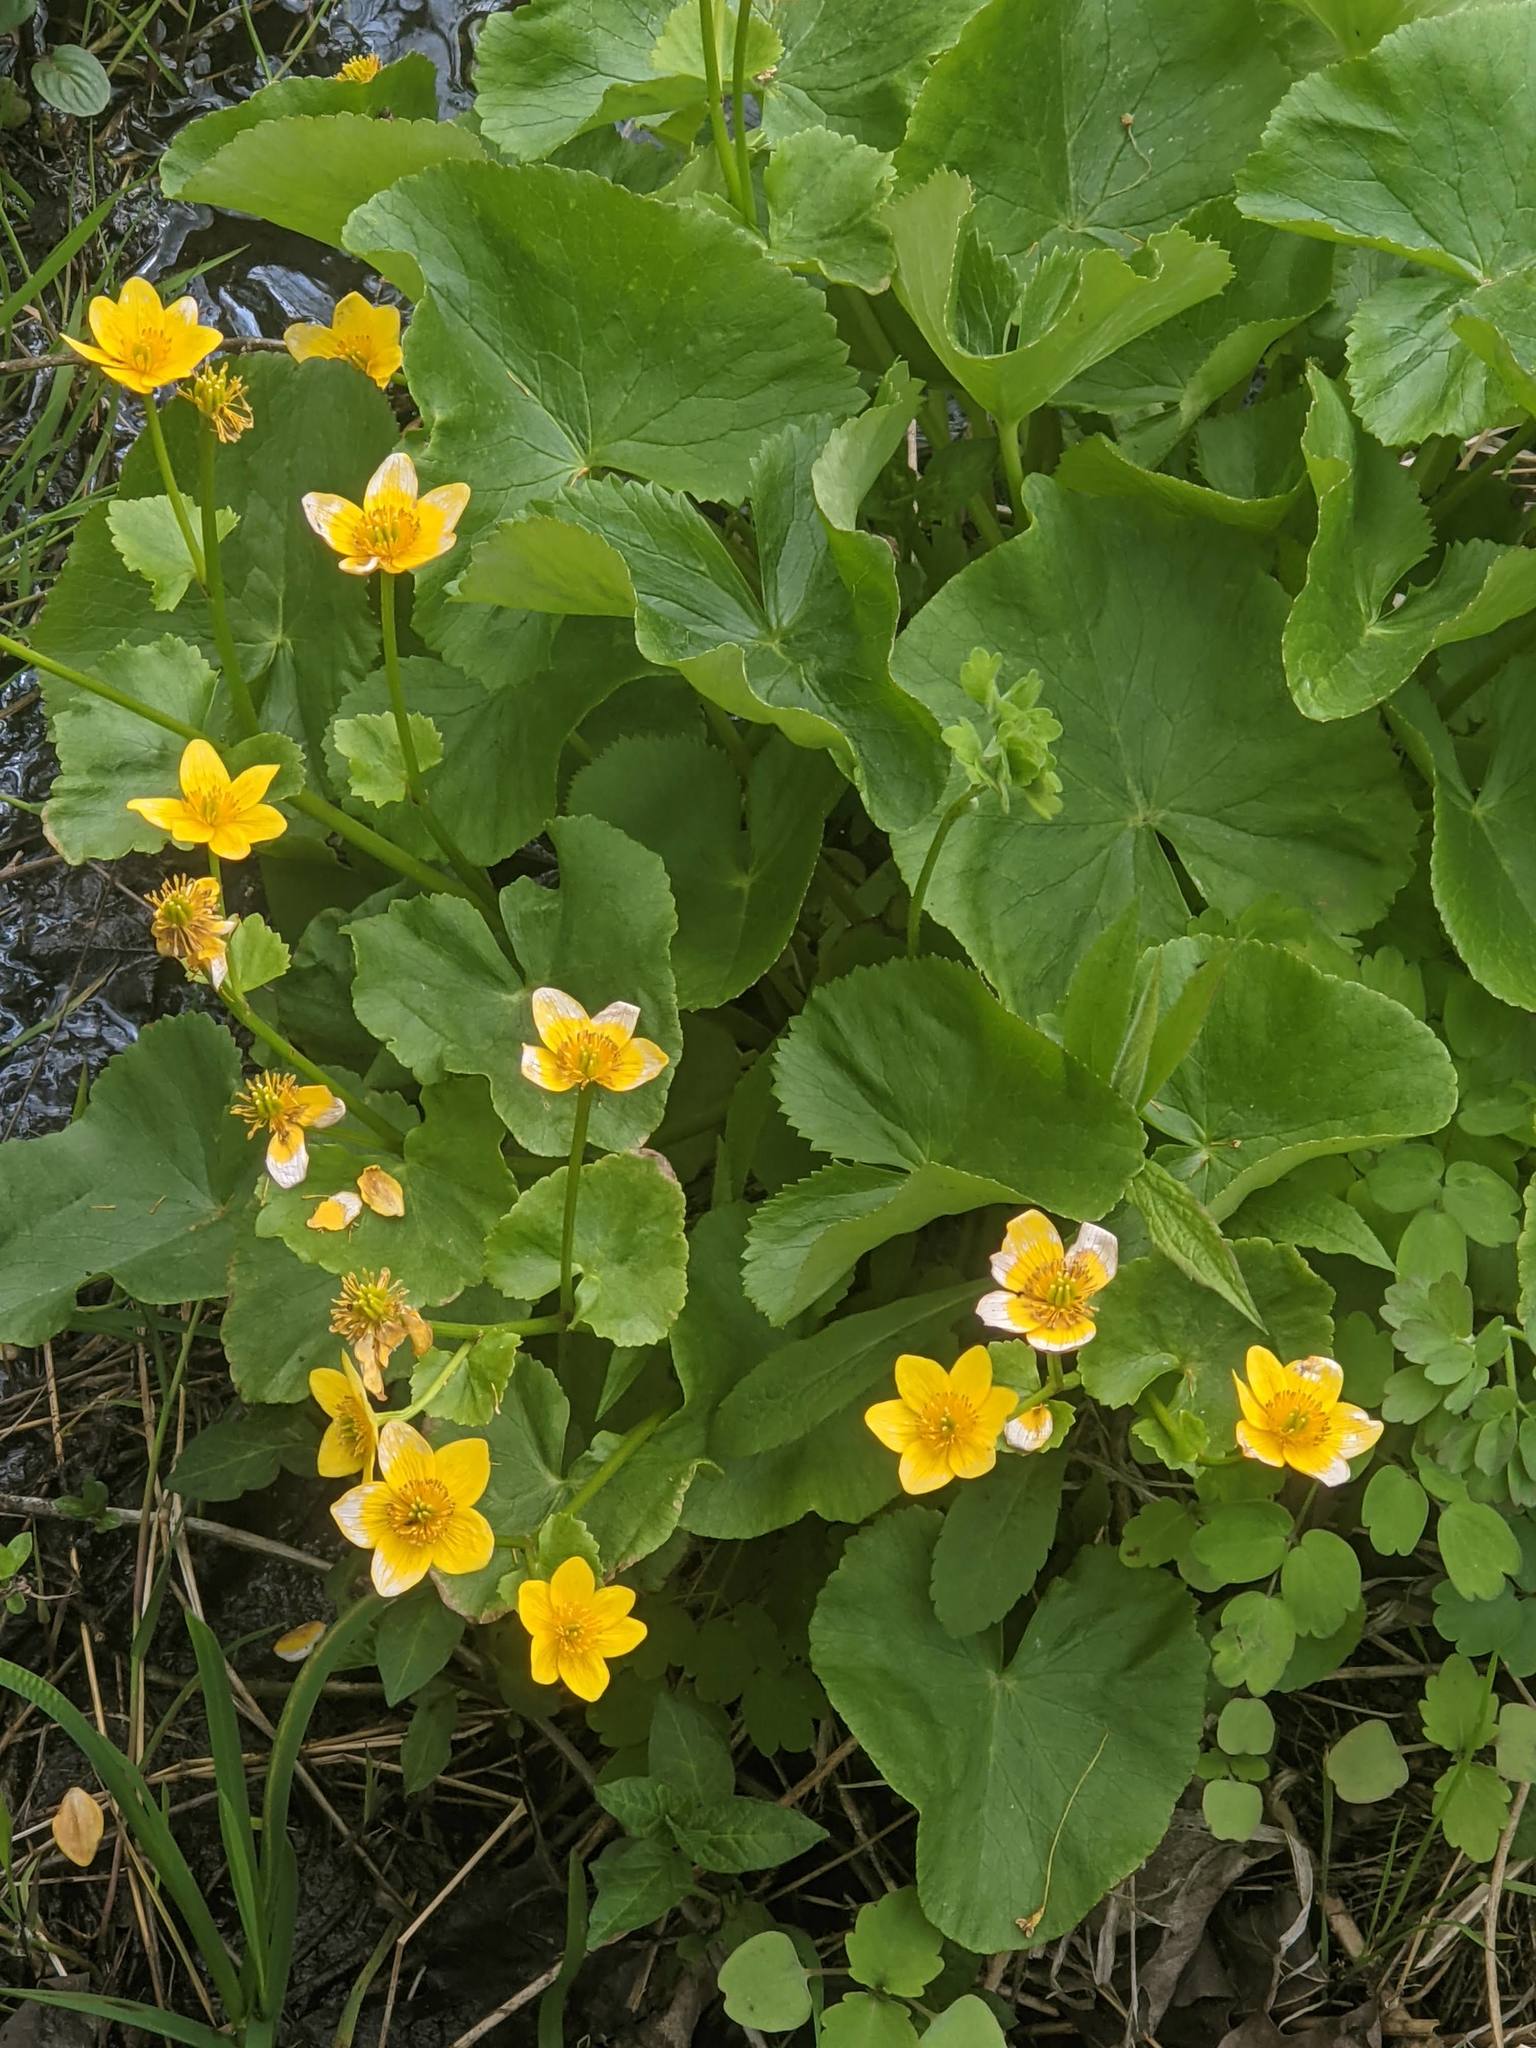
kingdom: Plantae
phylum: Tracheophyta
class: Magnoliopsida
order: Ranunculales
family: Ranunculaceae
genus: Caltha
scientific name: Caltha palustris
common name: Marsh marigold
